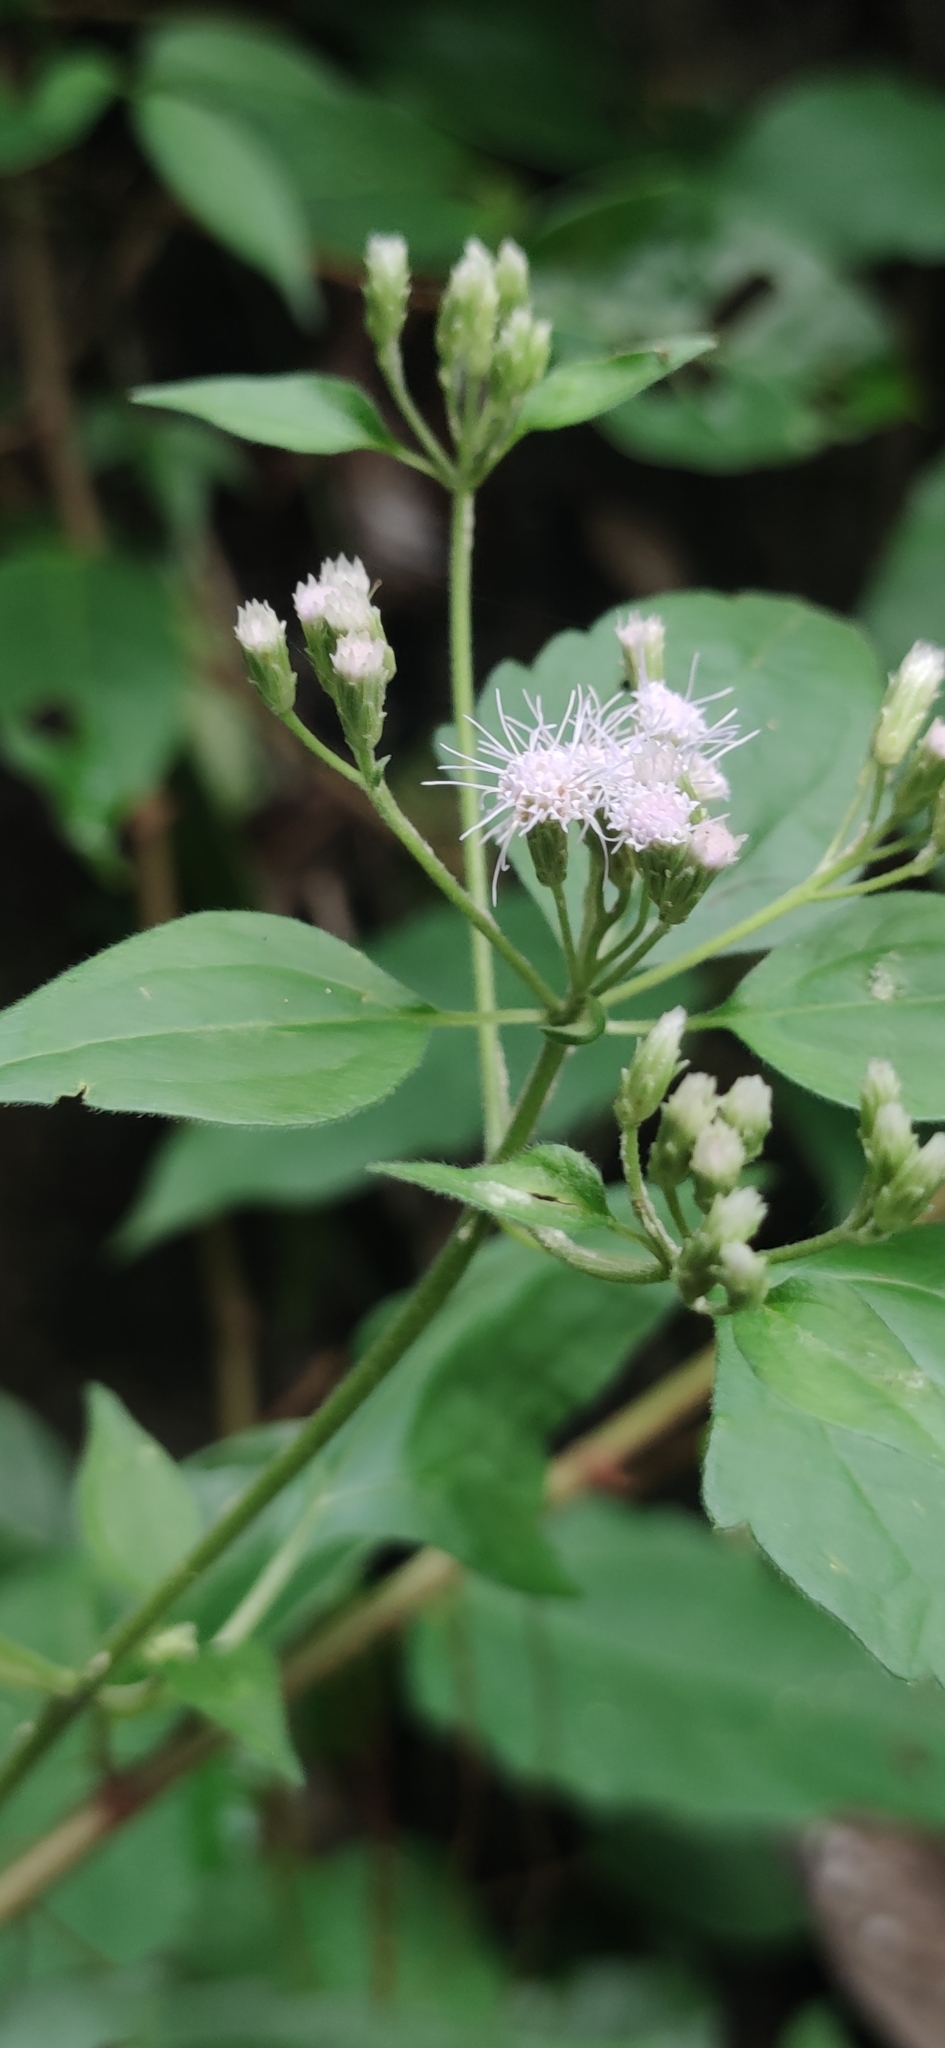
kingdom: Plantae
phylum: Tracheophyta
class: Magnoliopsida
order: Asterales
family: Asteraceae
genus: Chromolaena
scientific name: Chromolaena odorata
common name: Siamweed
